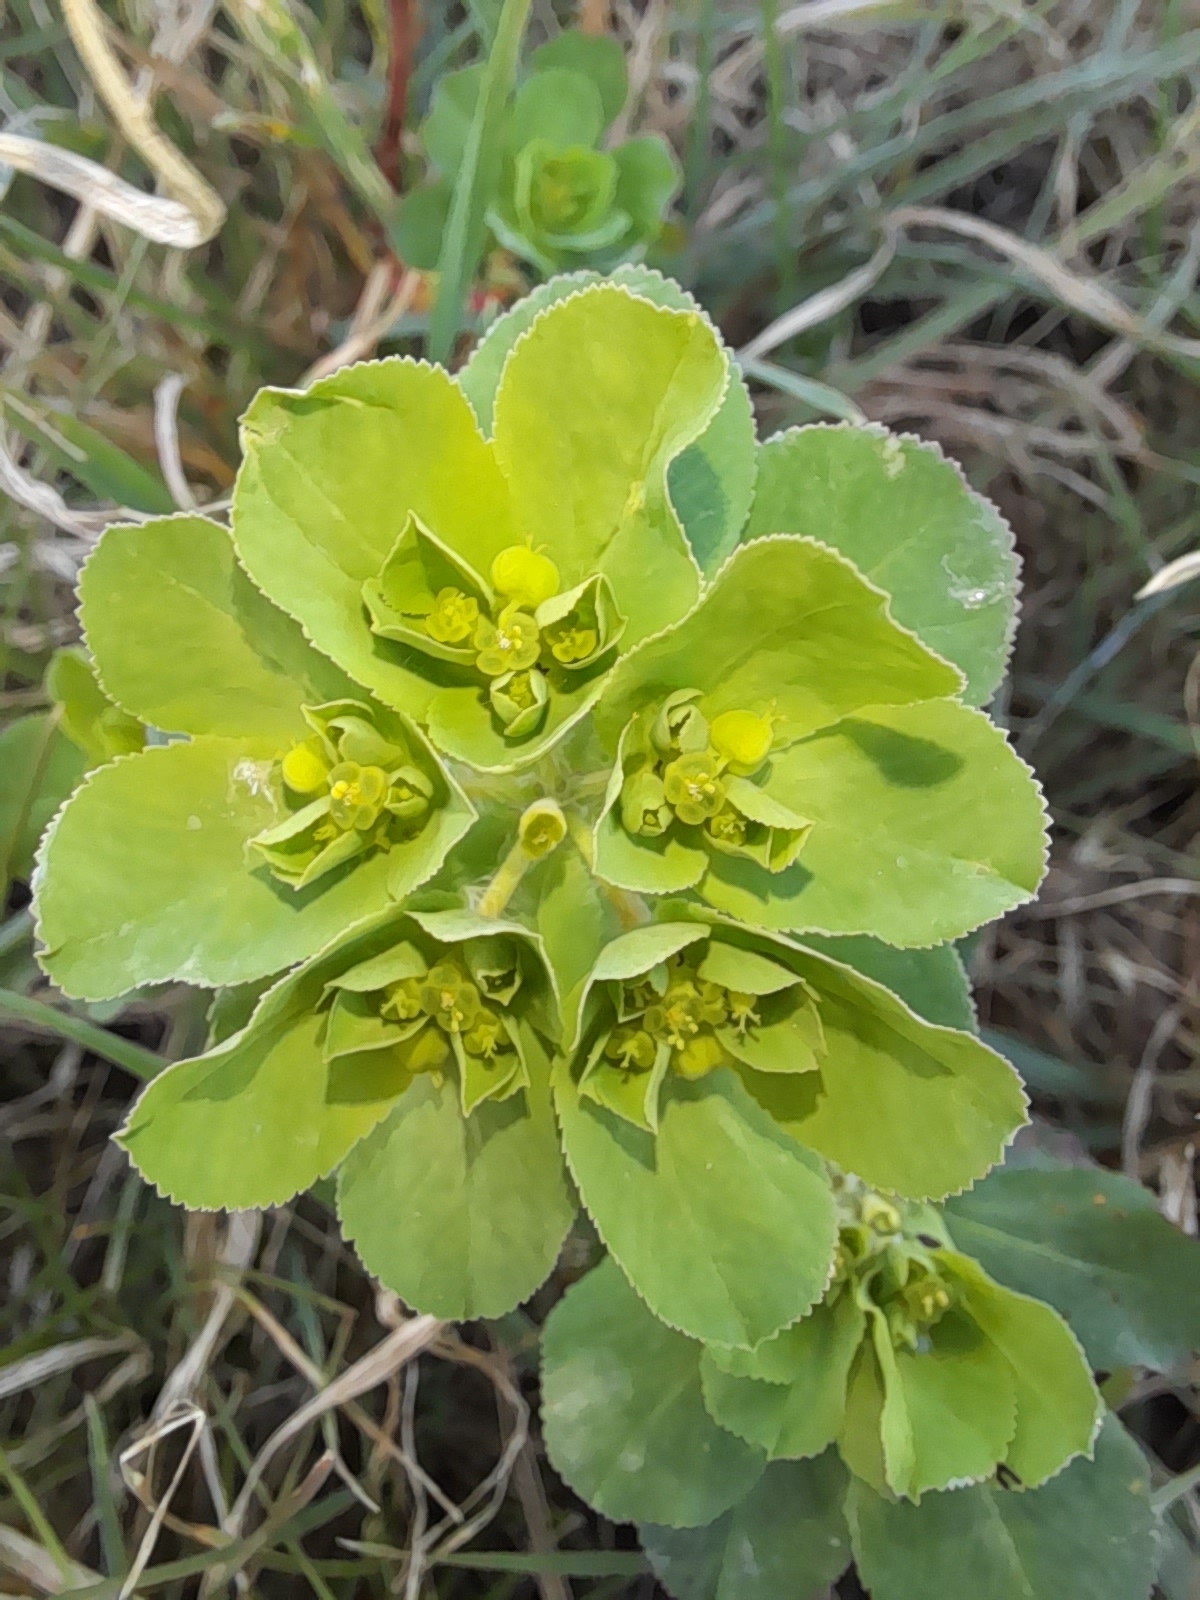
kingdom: Plantae
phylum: Tracheophyta
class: Magnoliopsida
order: Malpighiales
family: Euphorbiaceae
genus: Euphorbia
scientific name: Euphorbia helioscopia
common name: Sun spurge
